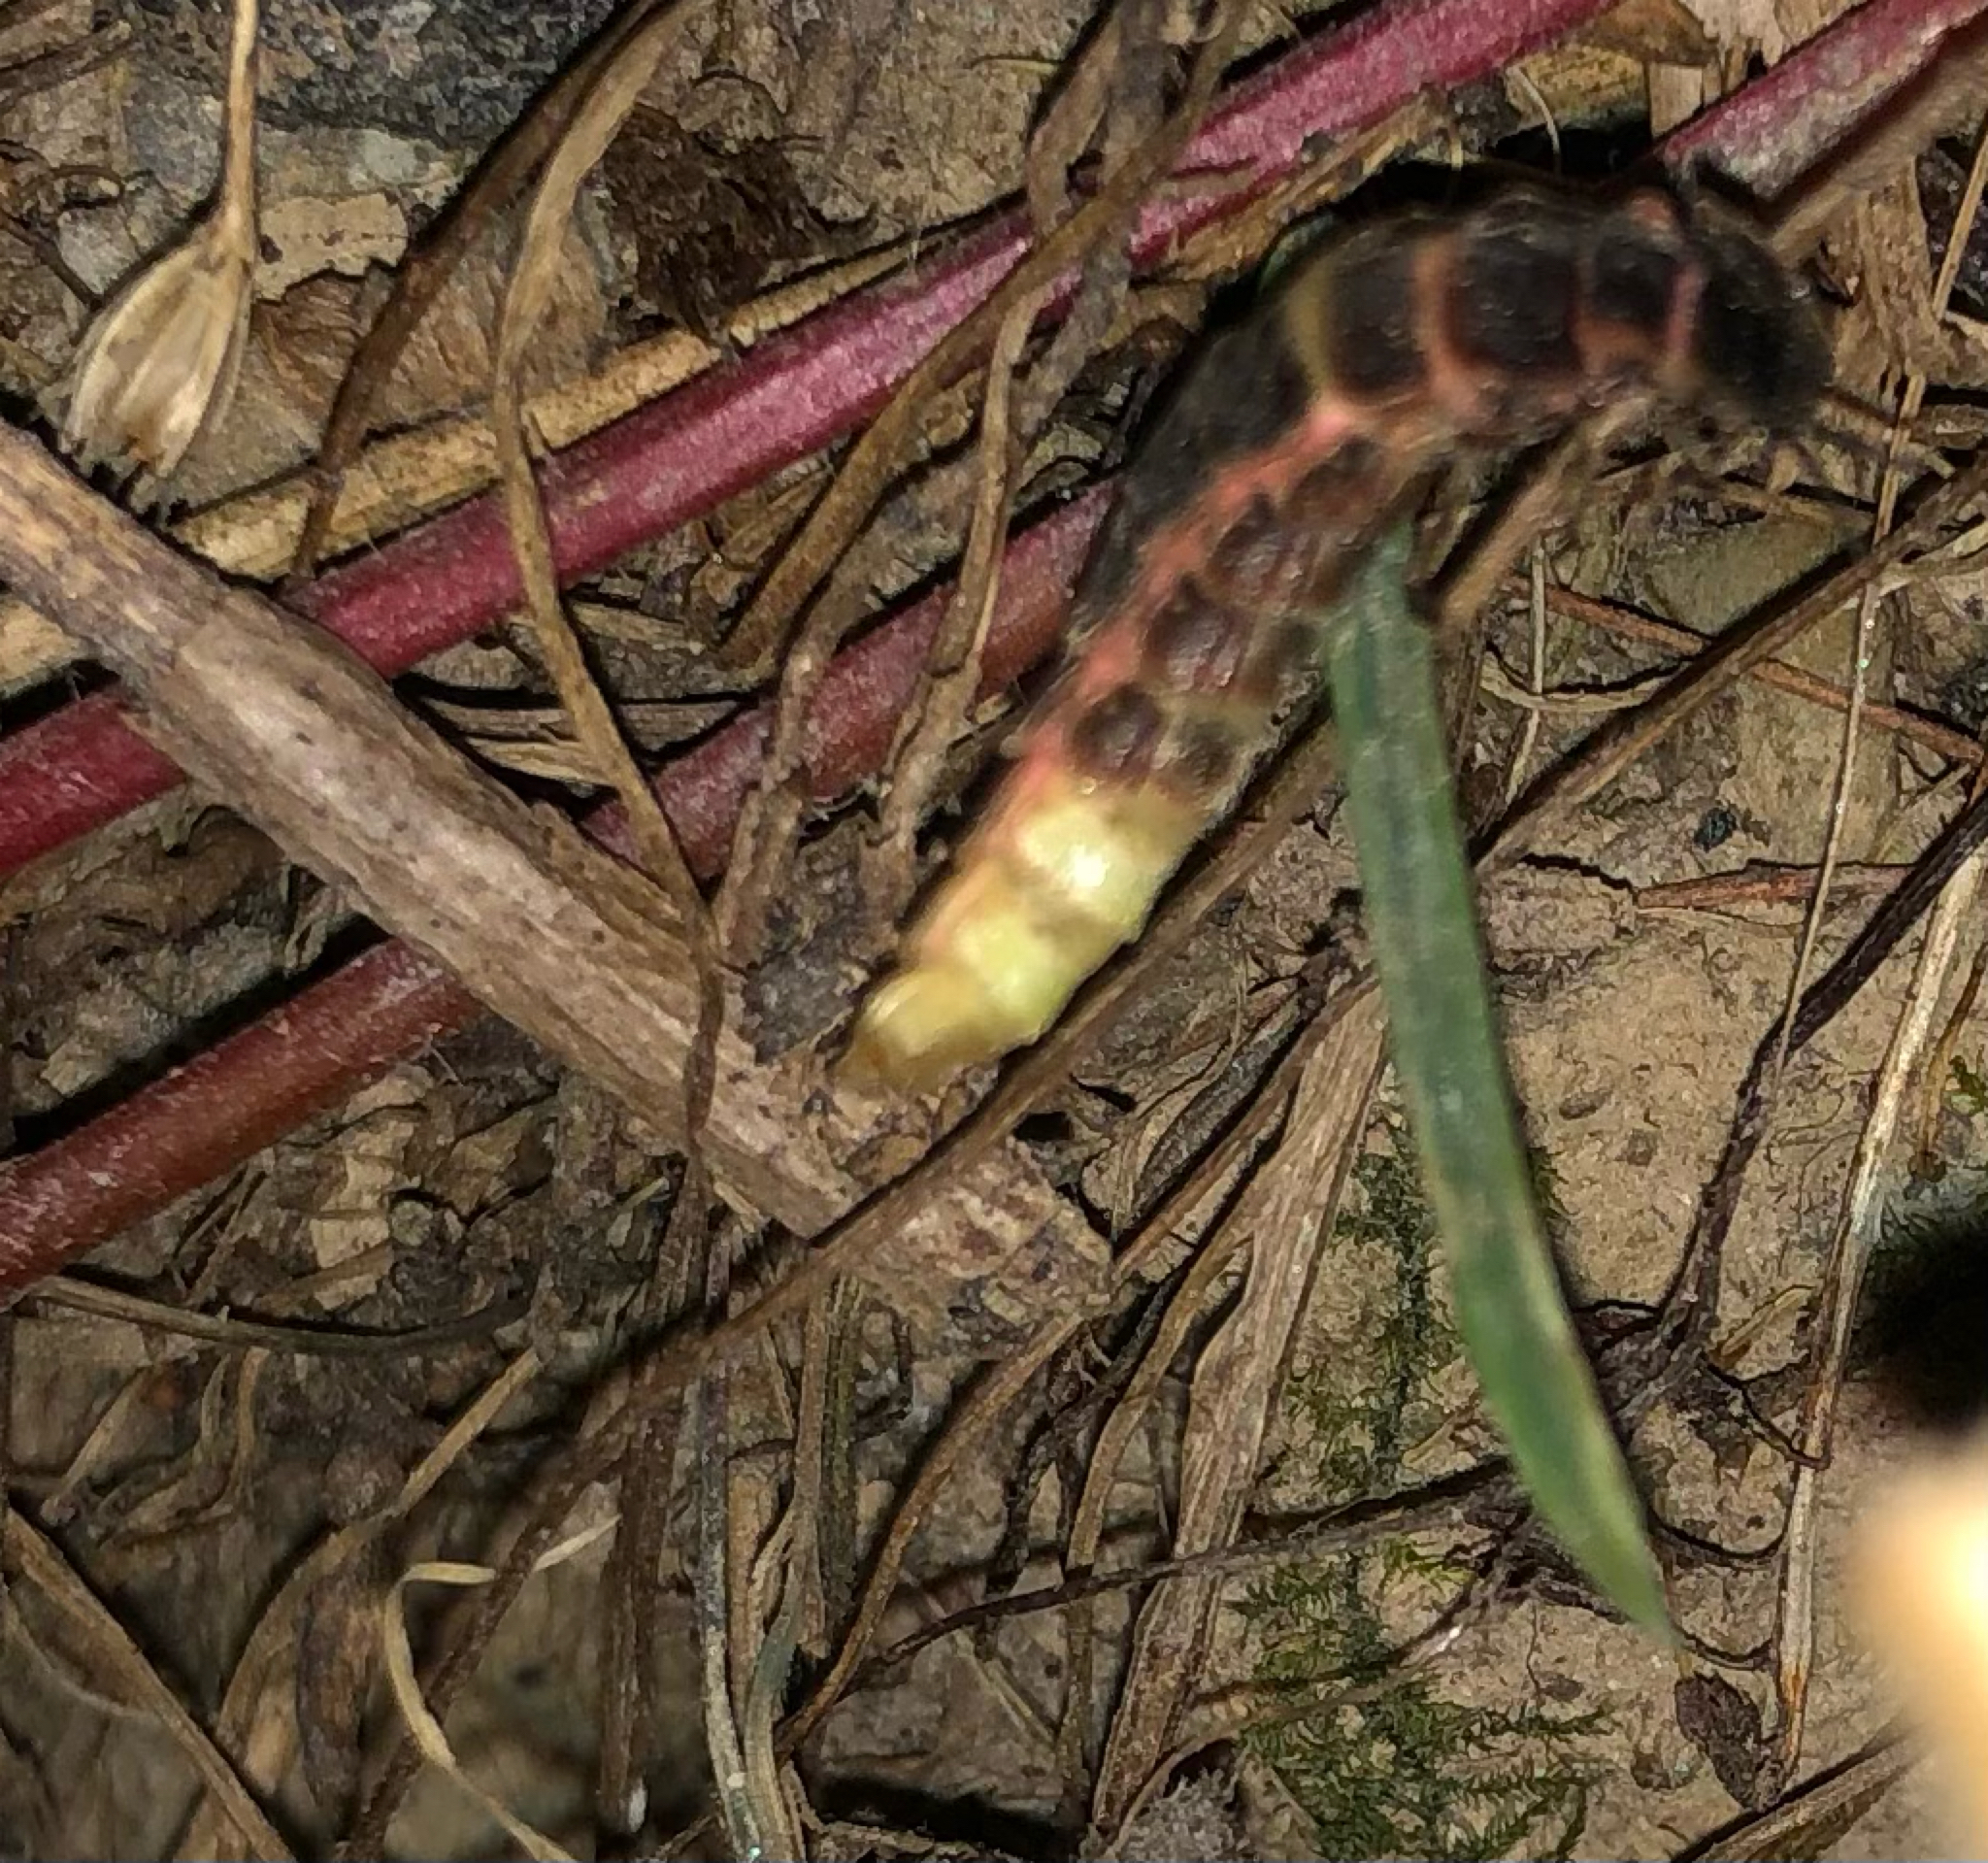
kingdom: Animalia
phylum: Arthropoda
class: Insecta
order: Coleoptera
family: Lampyridae
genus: Lampyris
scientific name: Lampyris noctiluca
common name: Glow-worm
